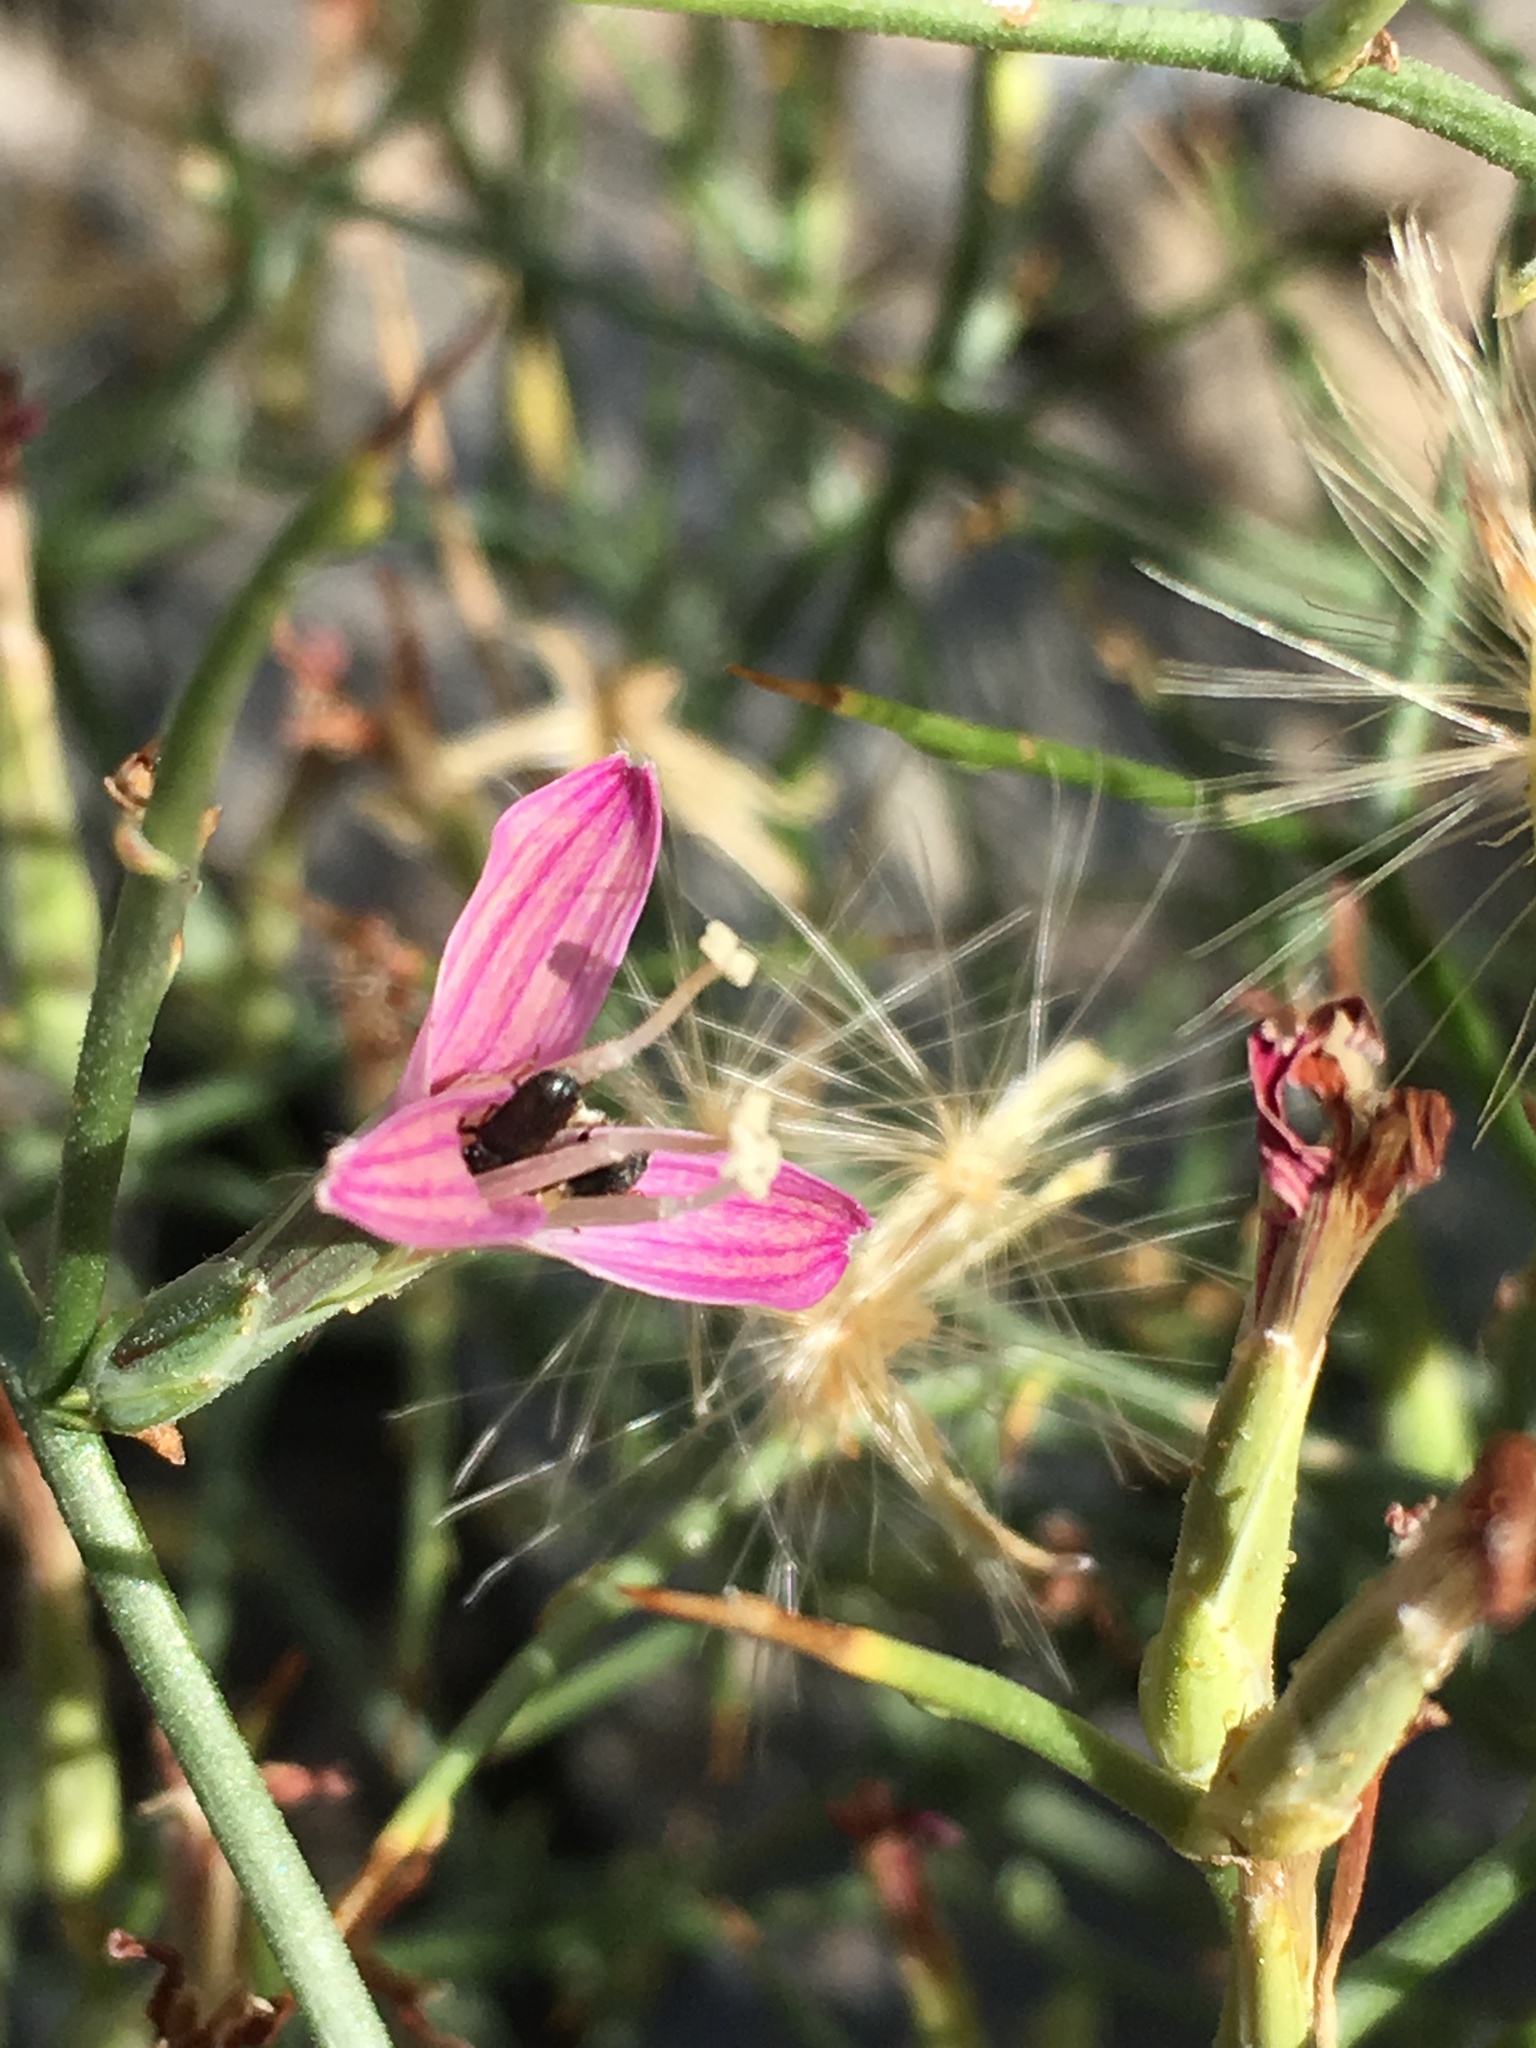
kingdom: Plantae
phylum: Tracheophyta
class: Magnoliopsida
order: Asterales
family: Asteraceae
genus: Pleiacanthus
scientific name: Pleiacanthus spinosus
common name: Thorny skeleton-weed
